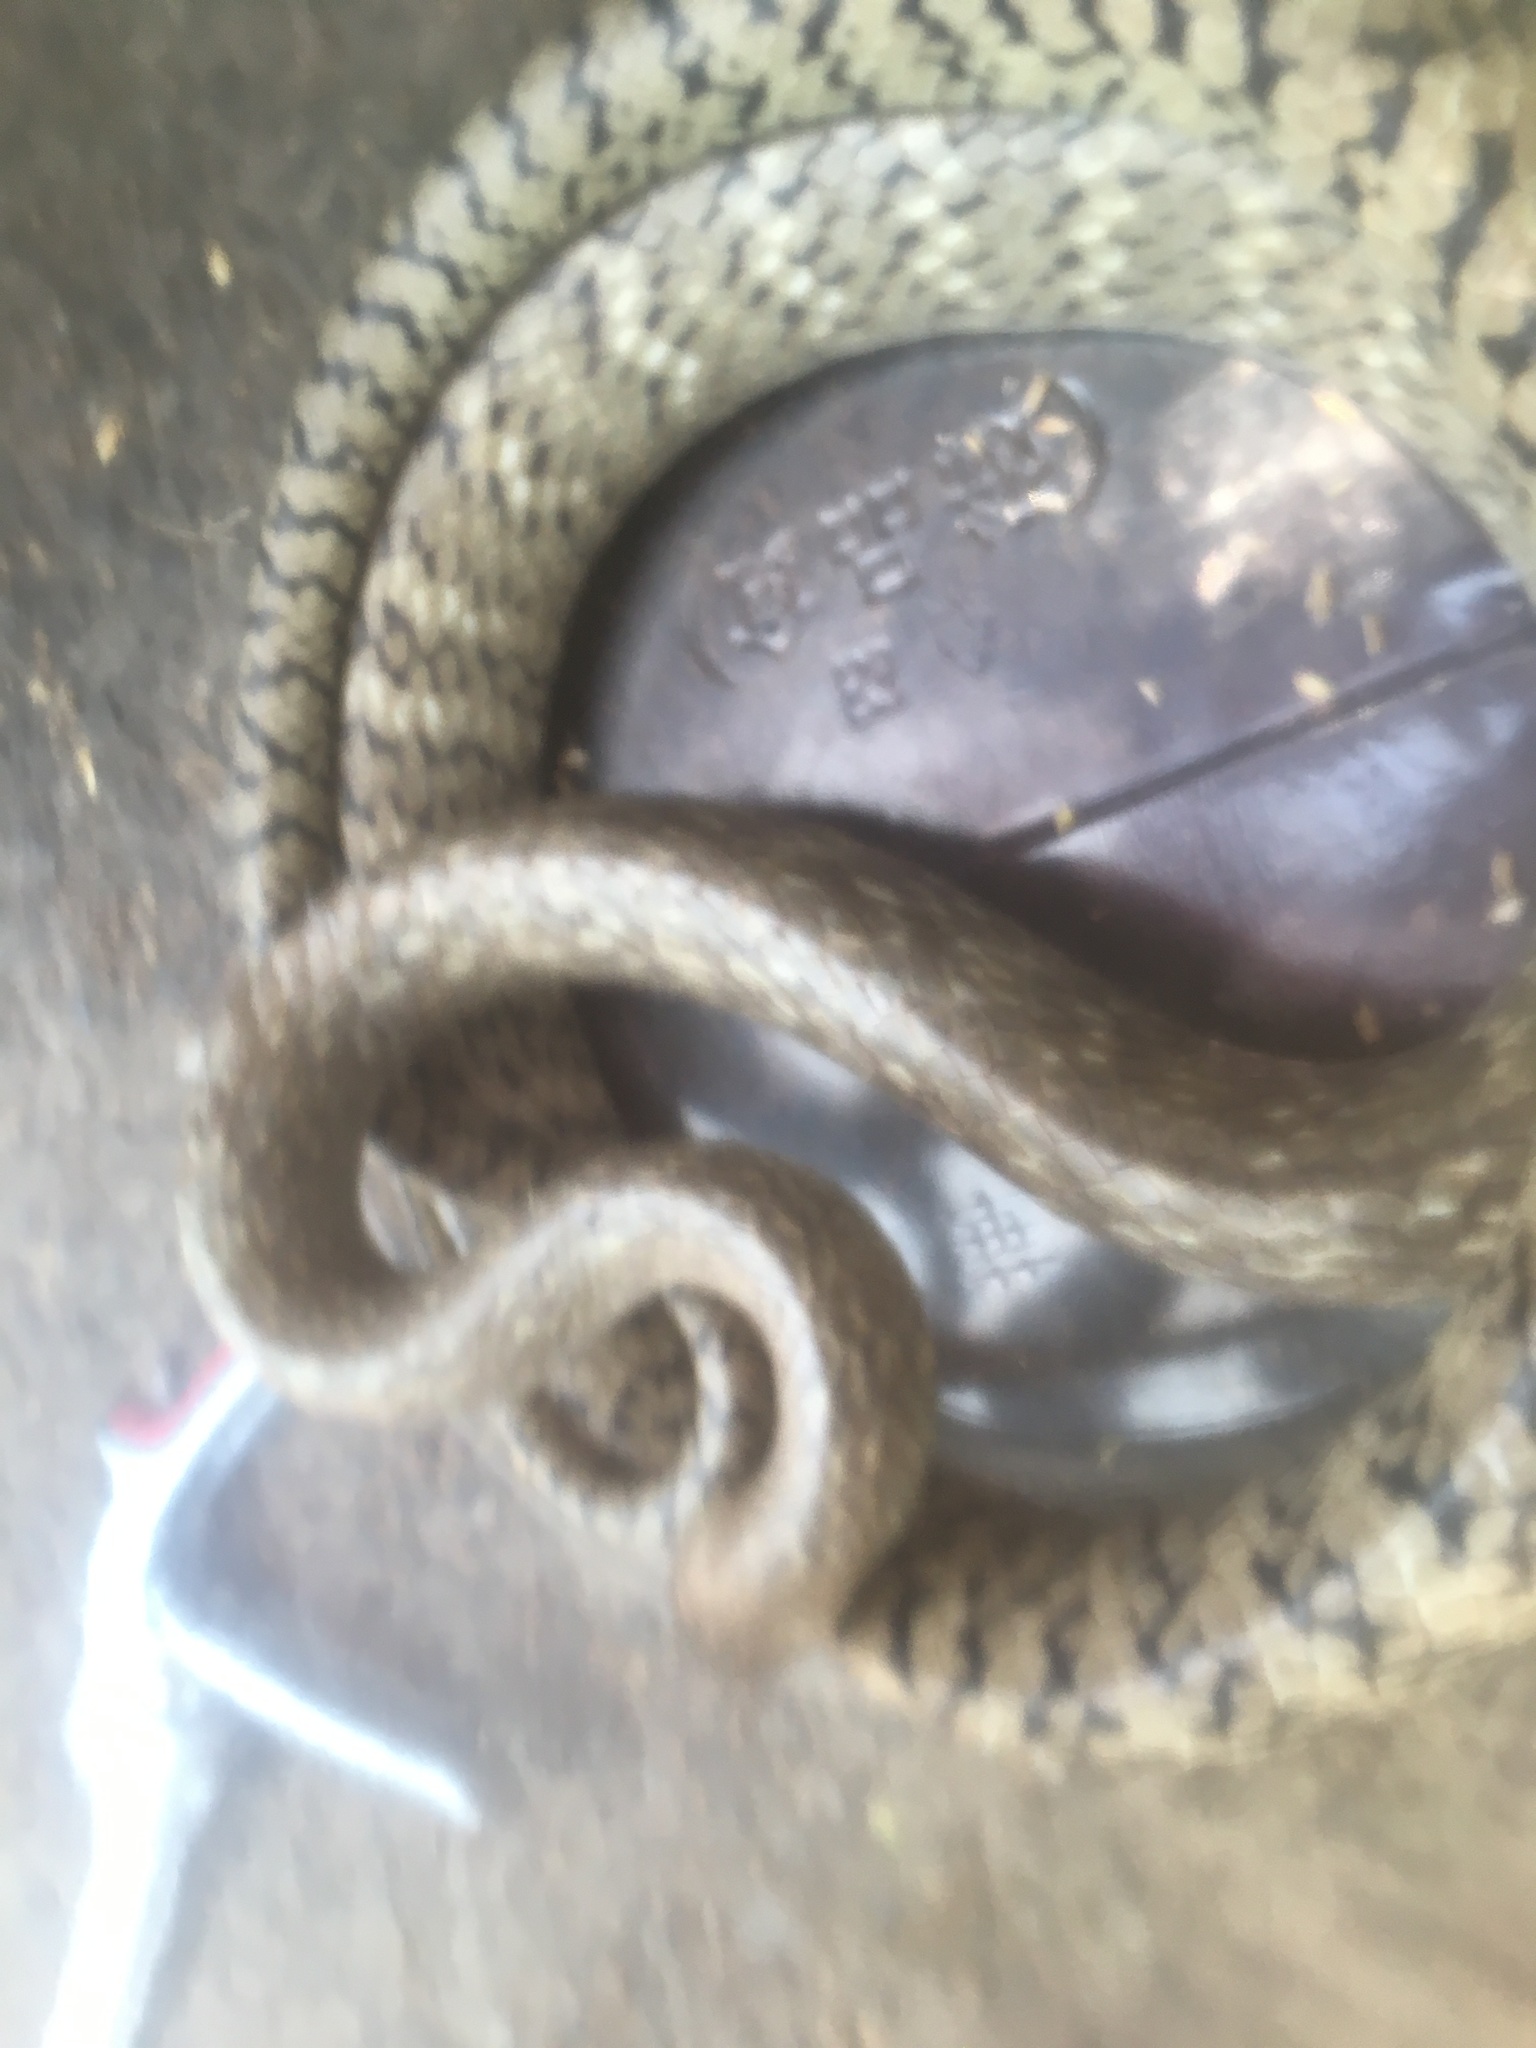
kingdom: Animalia
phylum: Chordata
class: Squamata
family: Colubridae
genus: Ptyas
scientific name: Ptyas mucosa
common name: Oriental ratsnake
